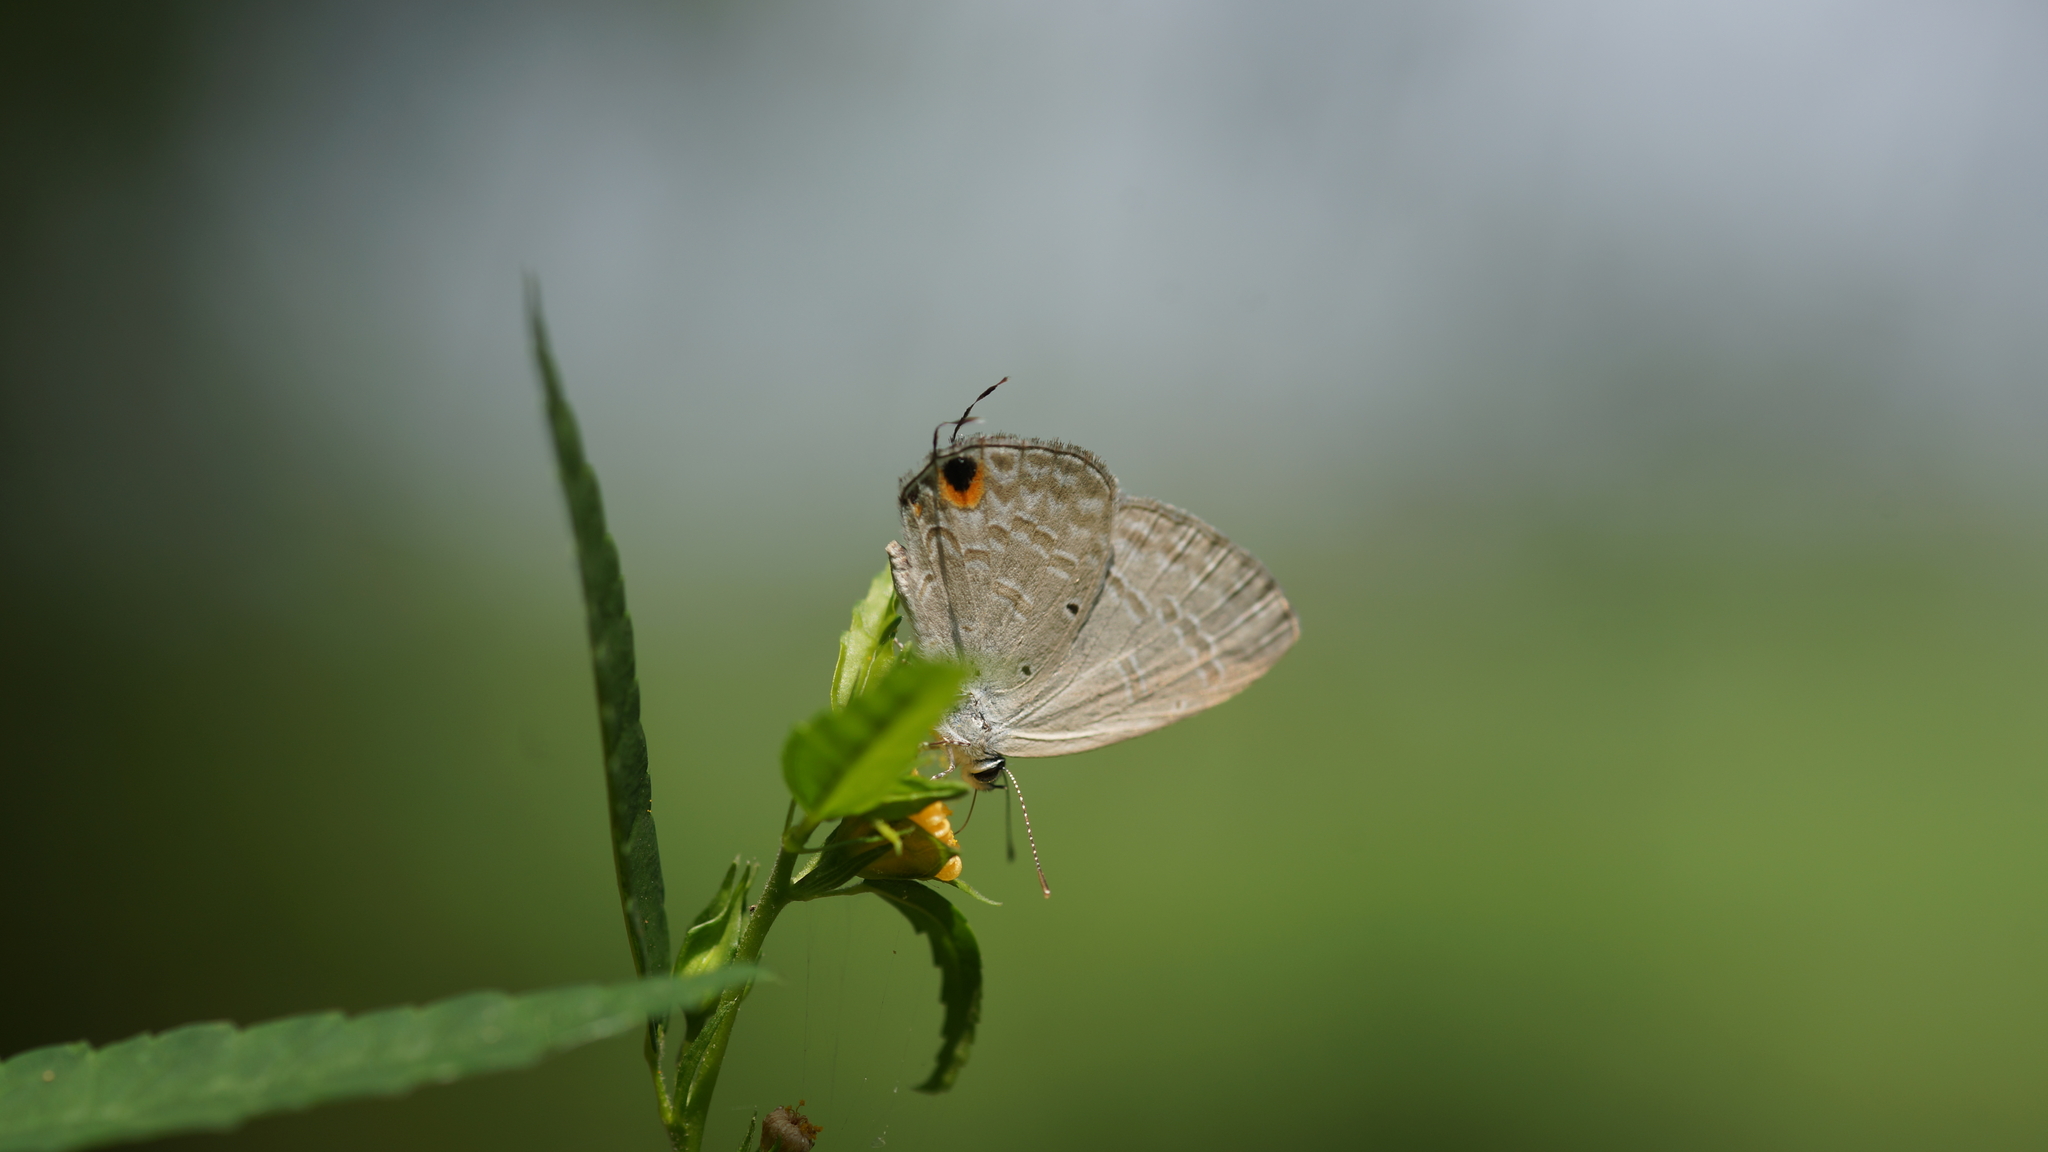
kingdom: Animalia
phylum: Arthropoda
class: Insecta
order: Lepidoptera
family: Lycaenidae
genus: Catochrysops
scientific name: Catochrysops strabo
